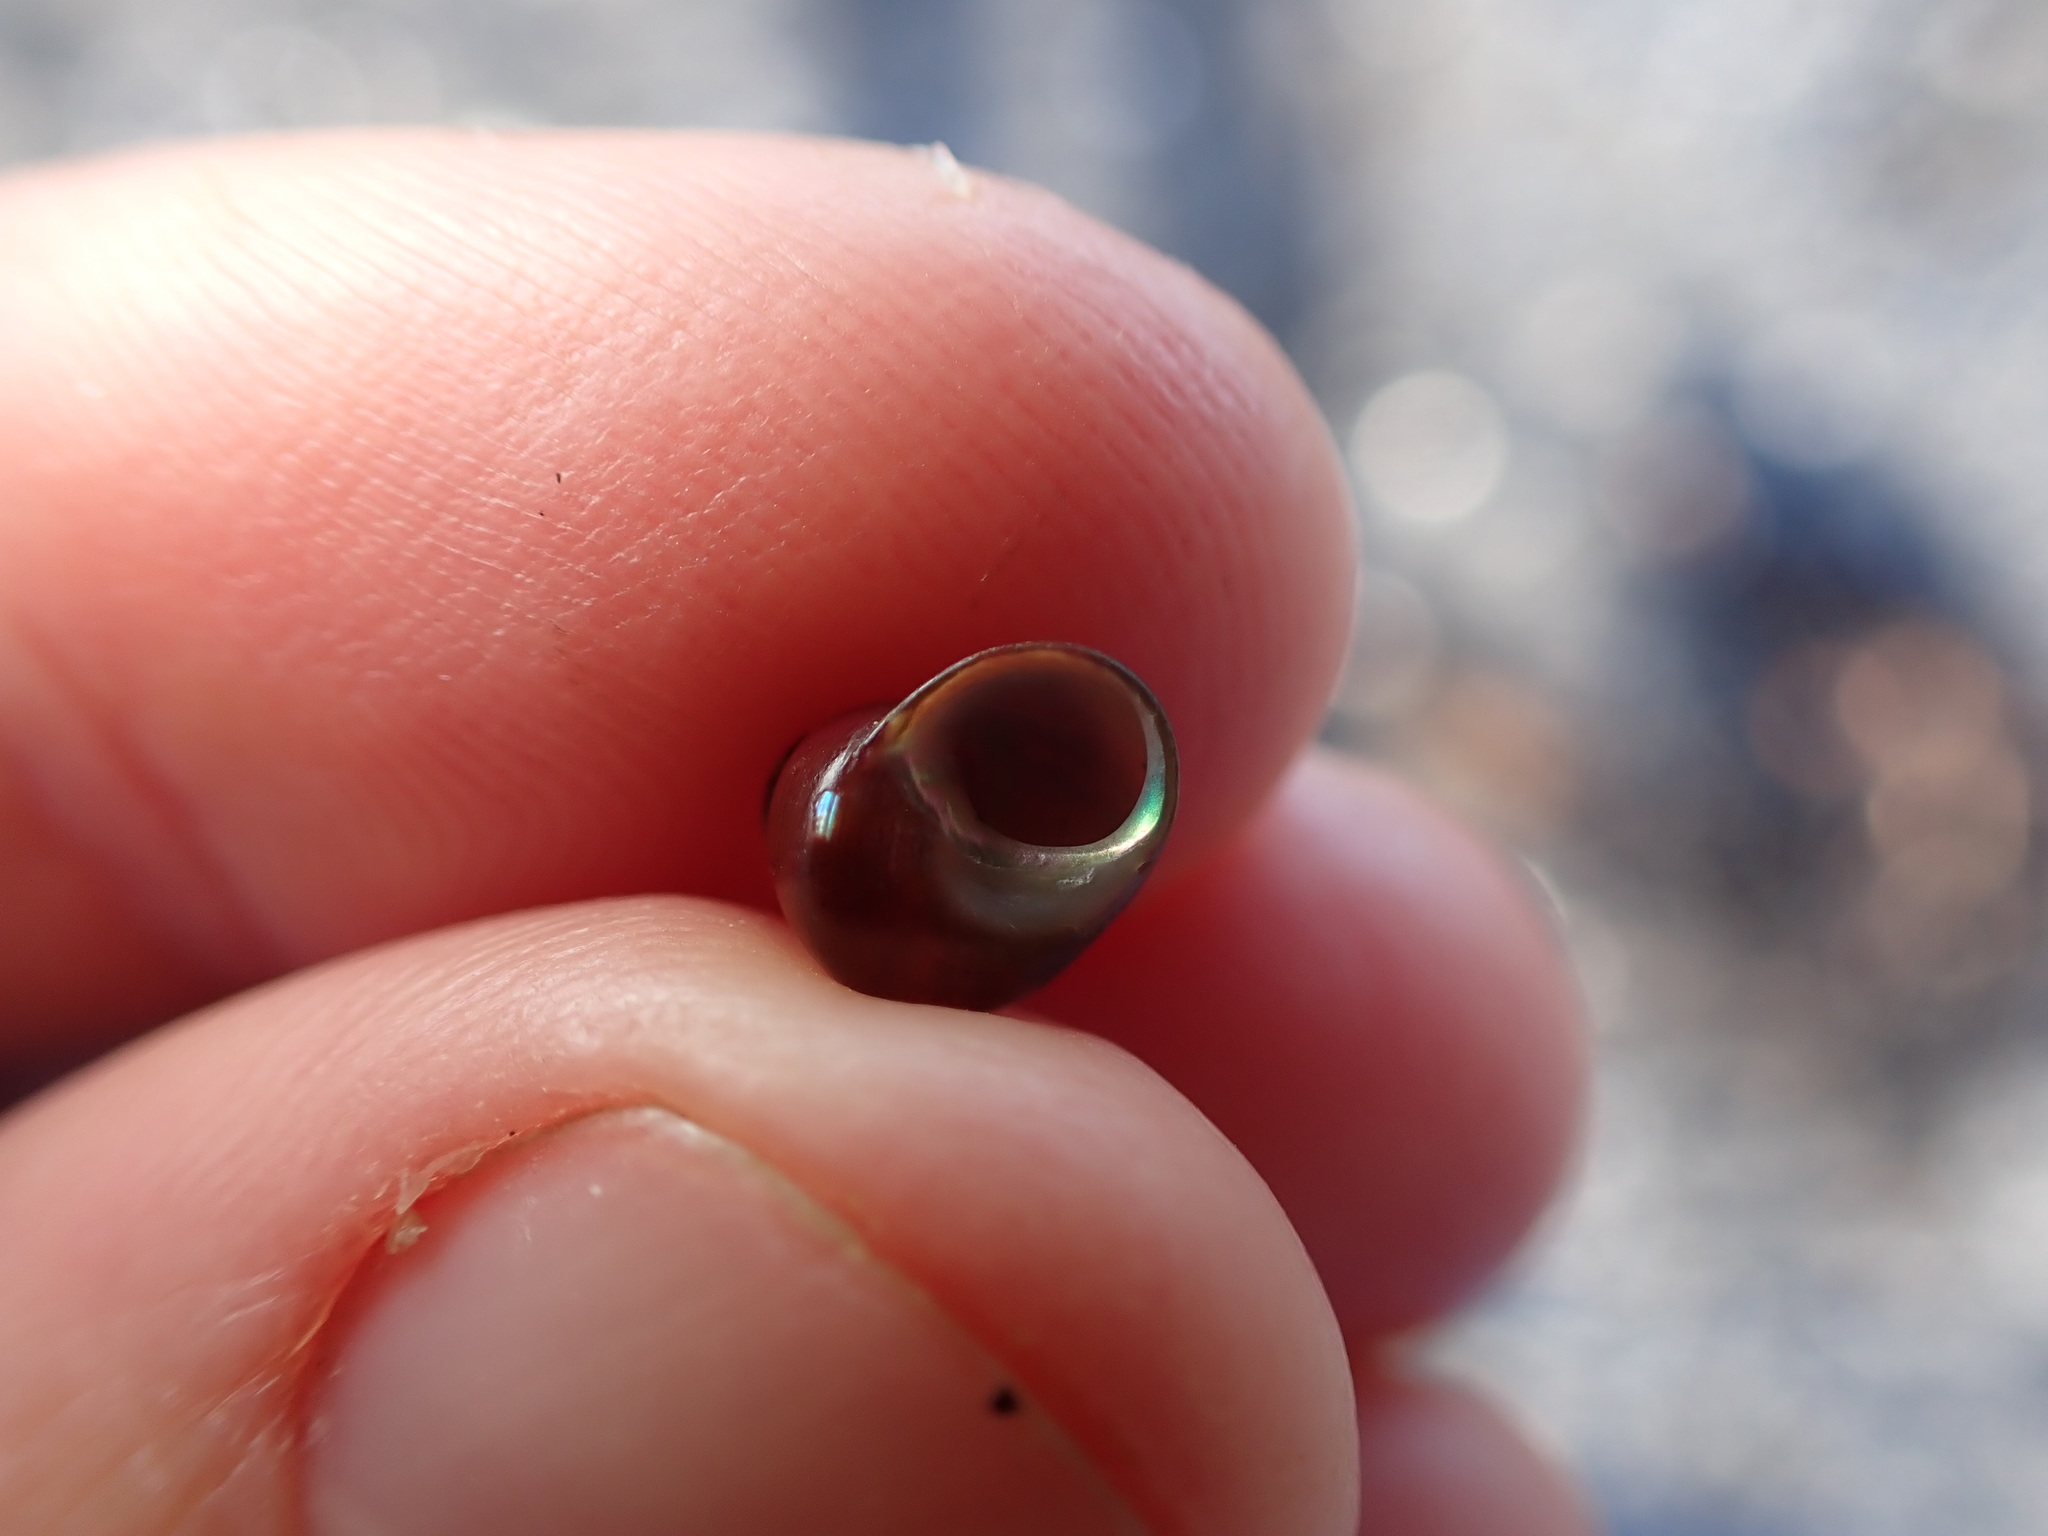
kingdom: Animalia
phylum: Mollusca
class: Gastropoda
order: Trochida
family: Trochidae
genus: Cantharidus
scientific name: Cantharidus dilatatus
